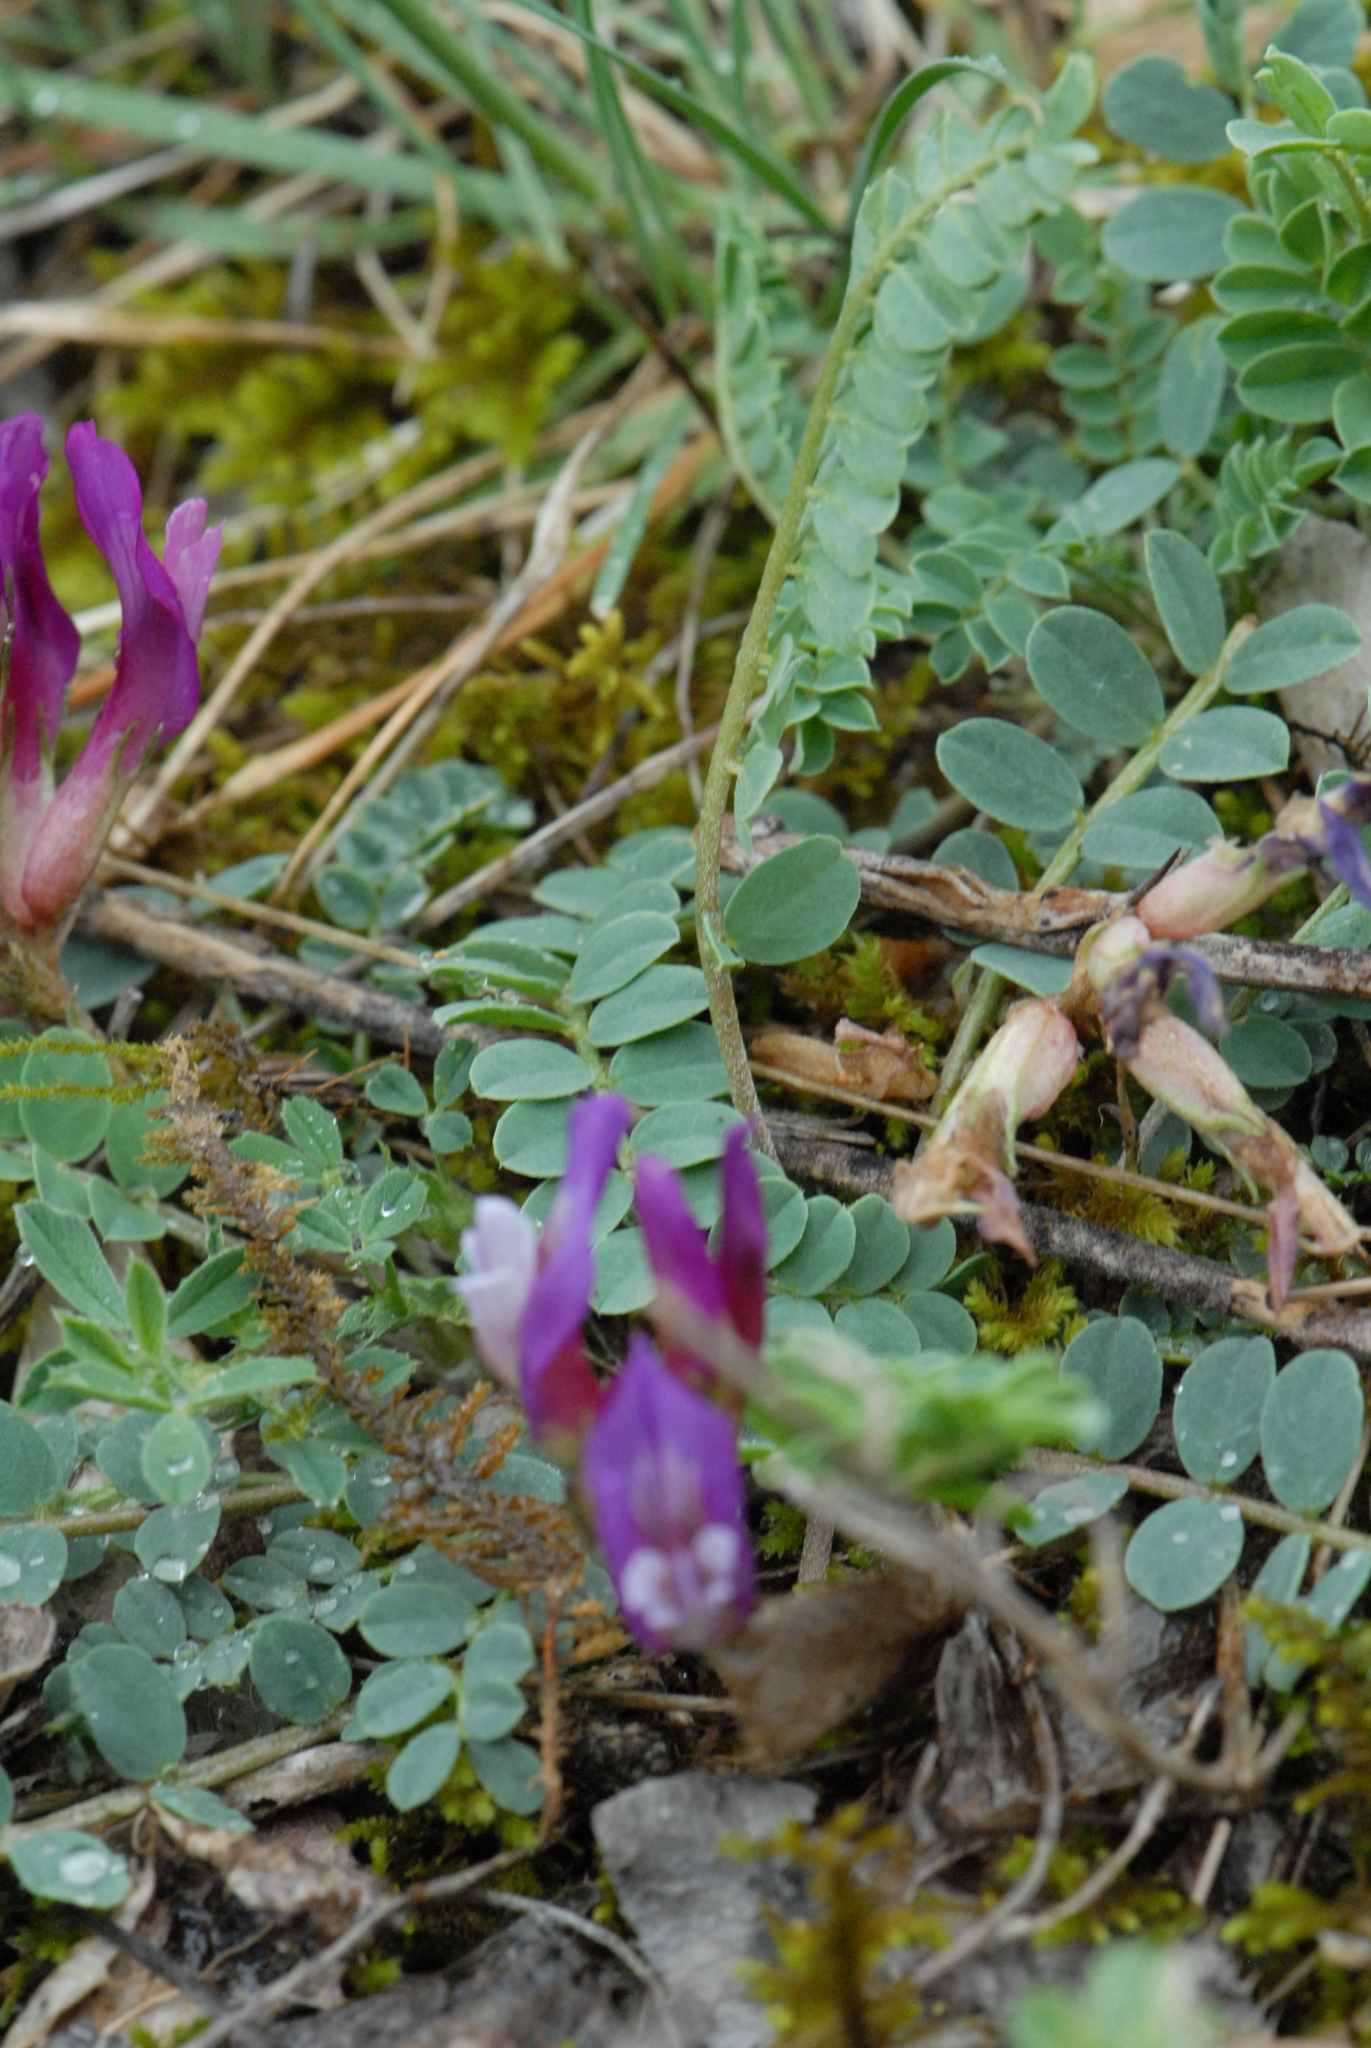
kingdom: Plantae
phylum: Tracheophyta
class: Magnoliopsida
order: Fabales
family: Fabaceae
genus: Astragalus
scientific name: Astragalus buschiorum
